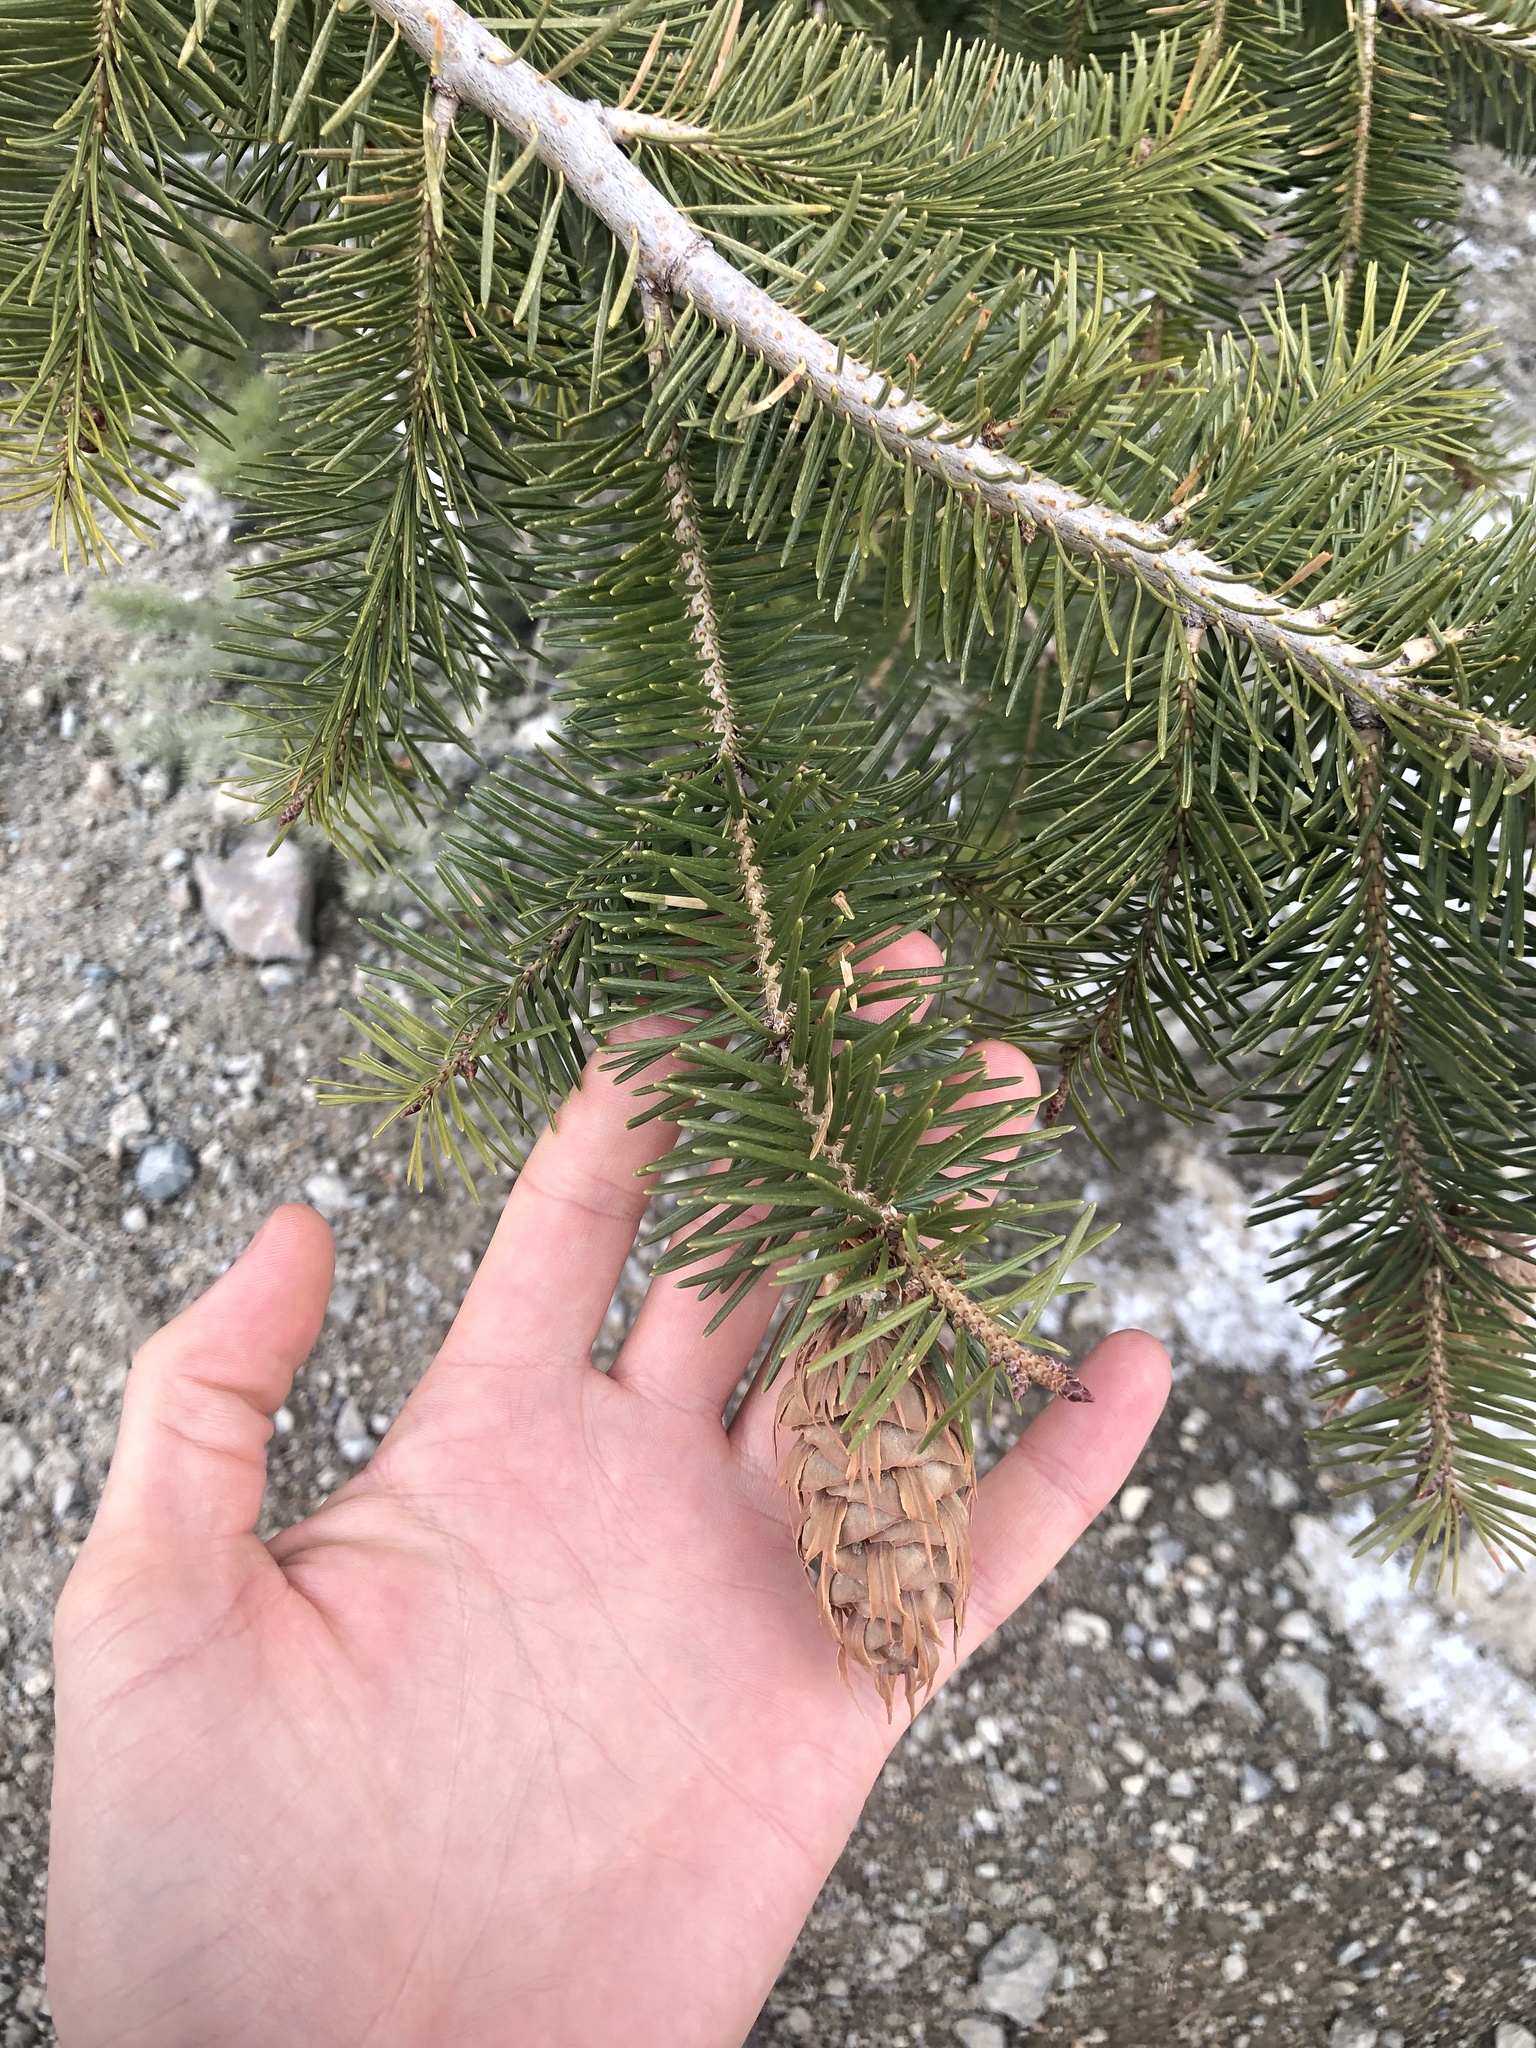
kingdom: Plantae
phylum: Tracheophyta
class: Pinopsida
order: Pinales
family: Pinaceae
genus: Pseudotsuga
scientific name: Pseudotsuga menziesii
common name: Douglas fir
